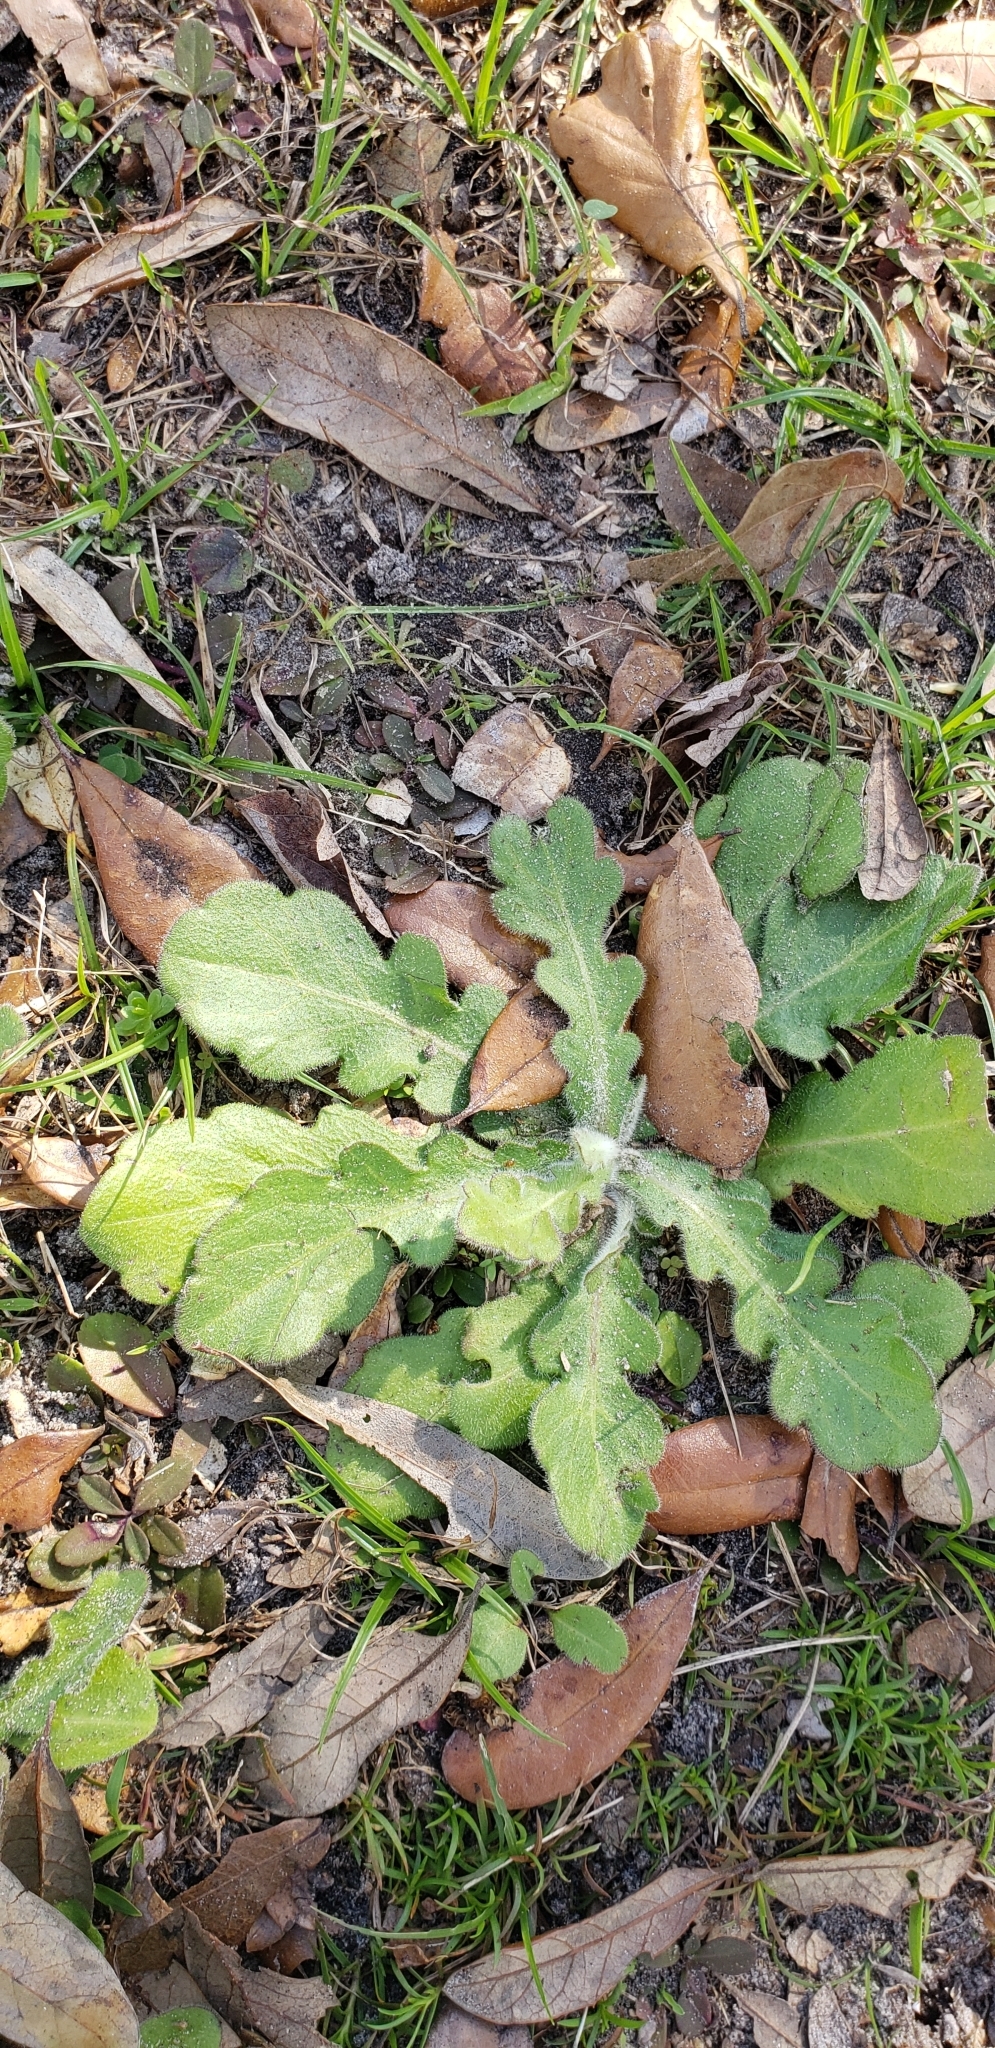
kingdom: Plantae
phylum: Tracheophyta
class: Magnoliopsida
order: Asterales
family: Asteraceae
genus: Erigeron
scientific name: Erigeron quercifolius
